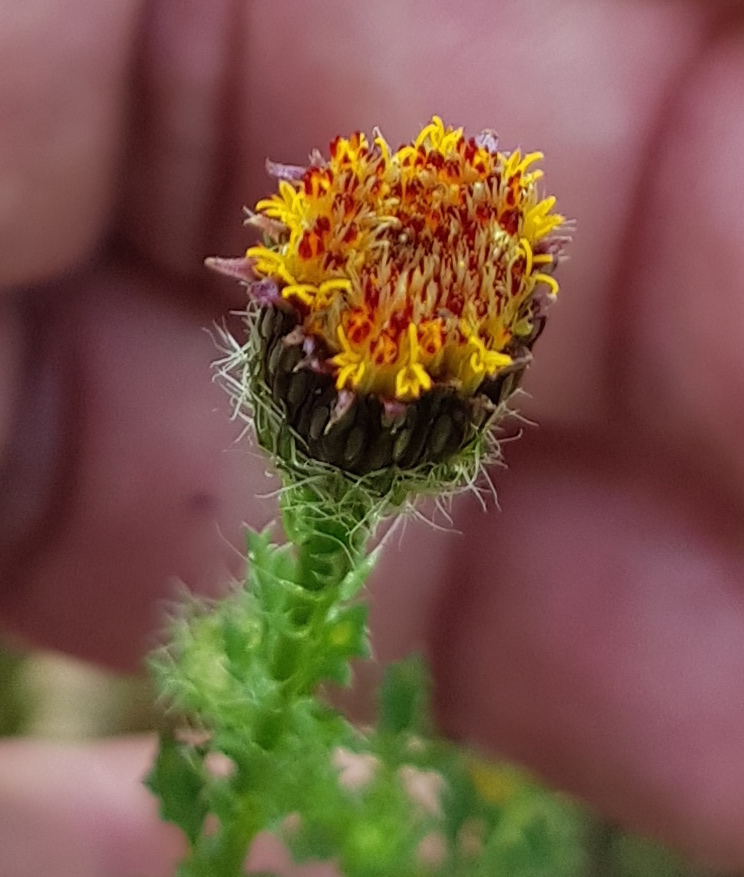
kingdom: Plantae
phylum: Tracheophyta
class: Magnoliopsida
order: Asterales
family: Asteraceae
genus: Adenophyllum
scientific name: Adenophyllum porophyllum
